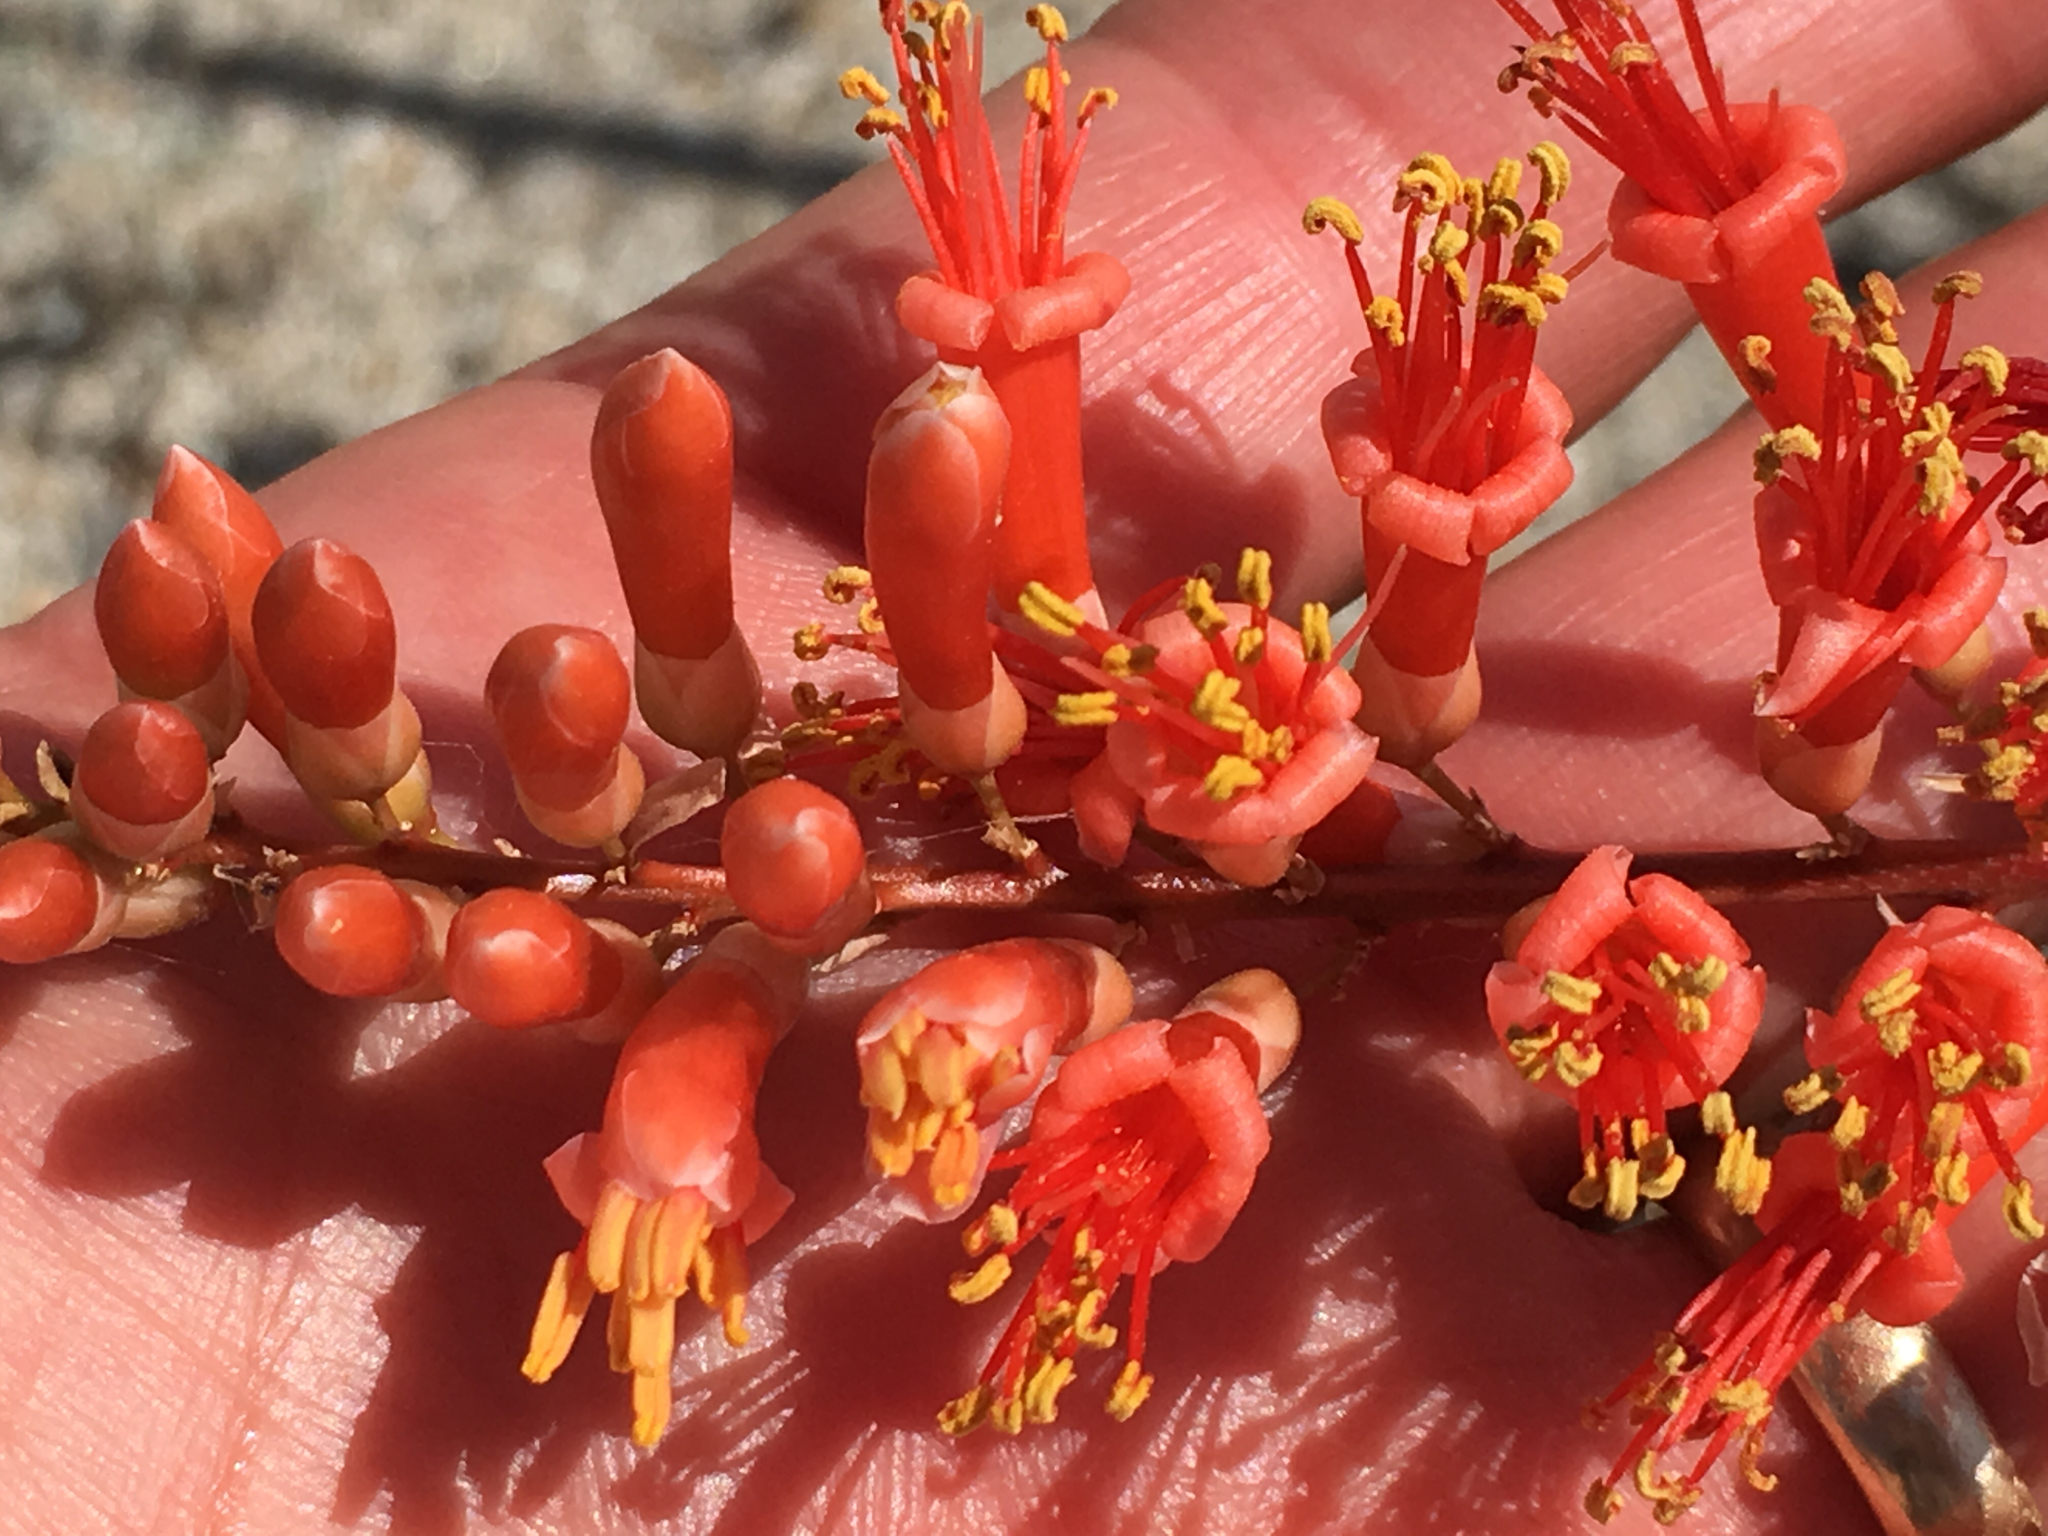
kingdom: Plantae
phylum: Tracheophyta
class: Magnoliopsida
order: Ericales
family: Fouquieriaceae
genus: Fouquieria
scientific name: Fouquieria splendens
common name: Vine-cactus
